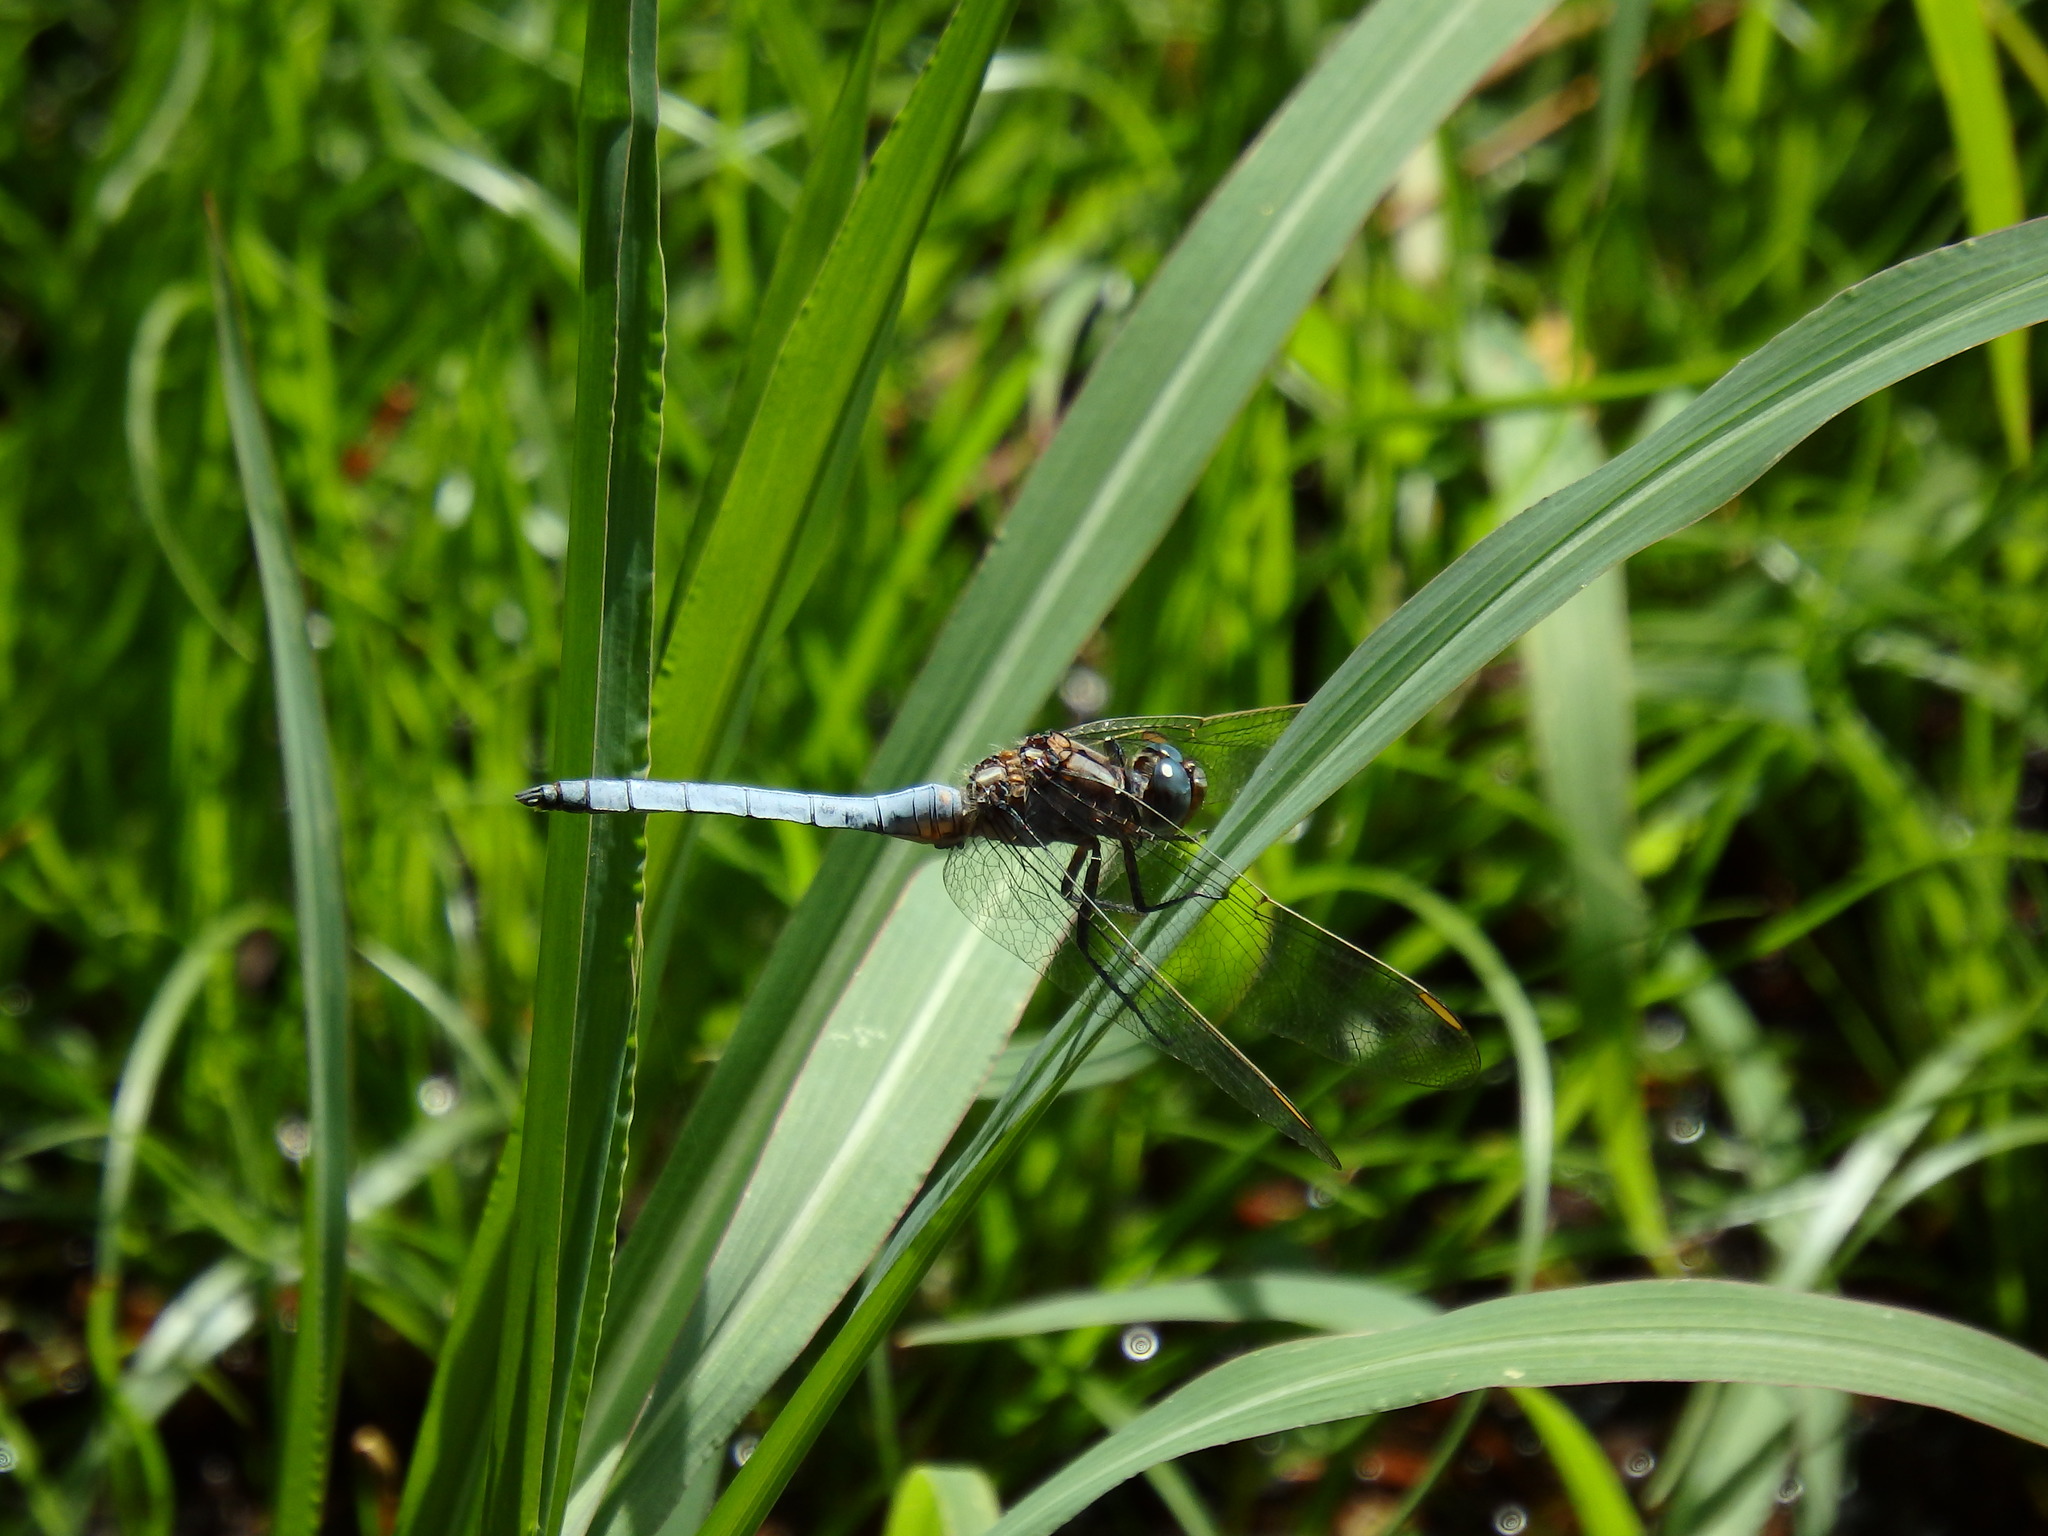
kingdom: Animalia
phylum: Arthropoda
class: Insecta
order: Odonata
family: Libellulidae
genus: Orthetrum
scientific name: Orthetrum coerulescens
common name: Keeled skimmer
